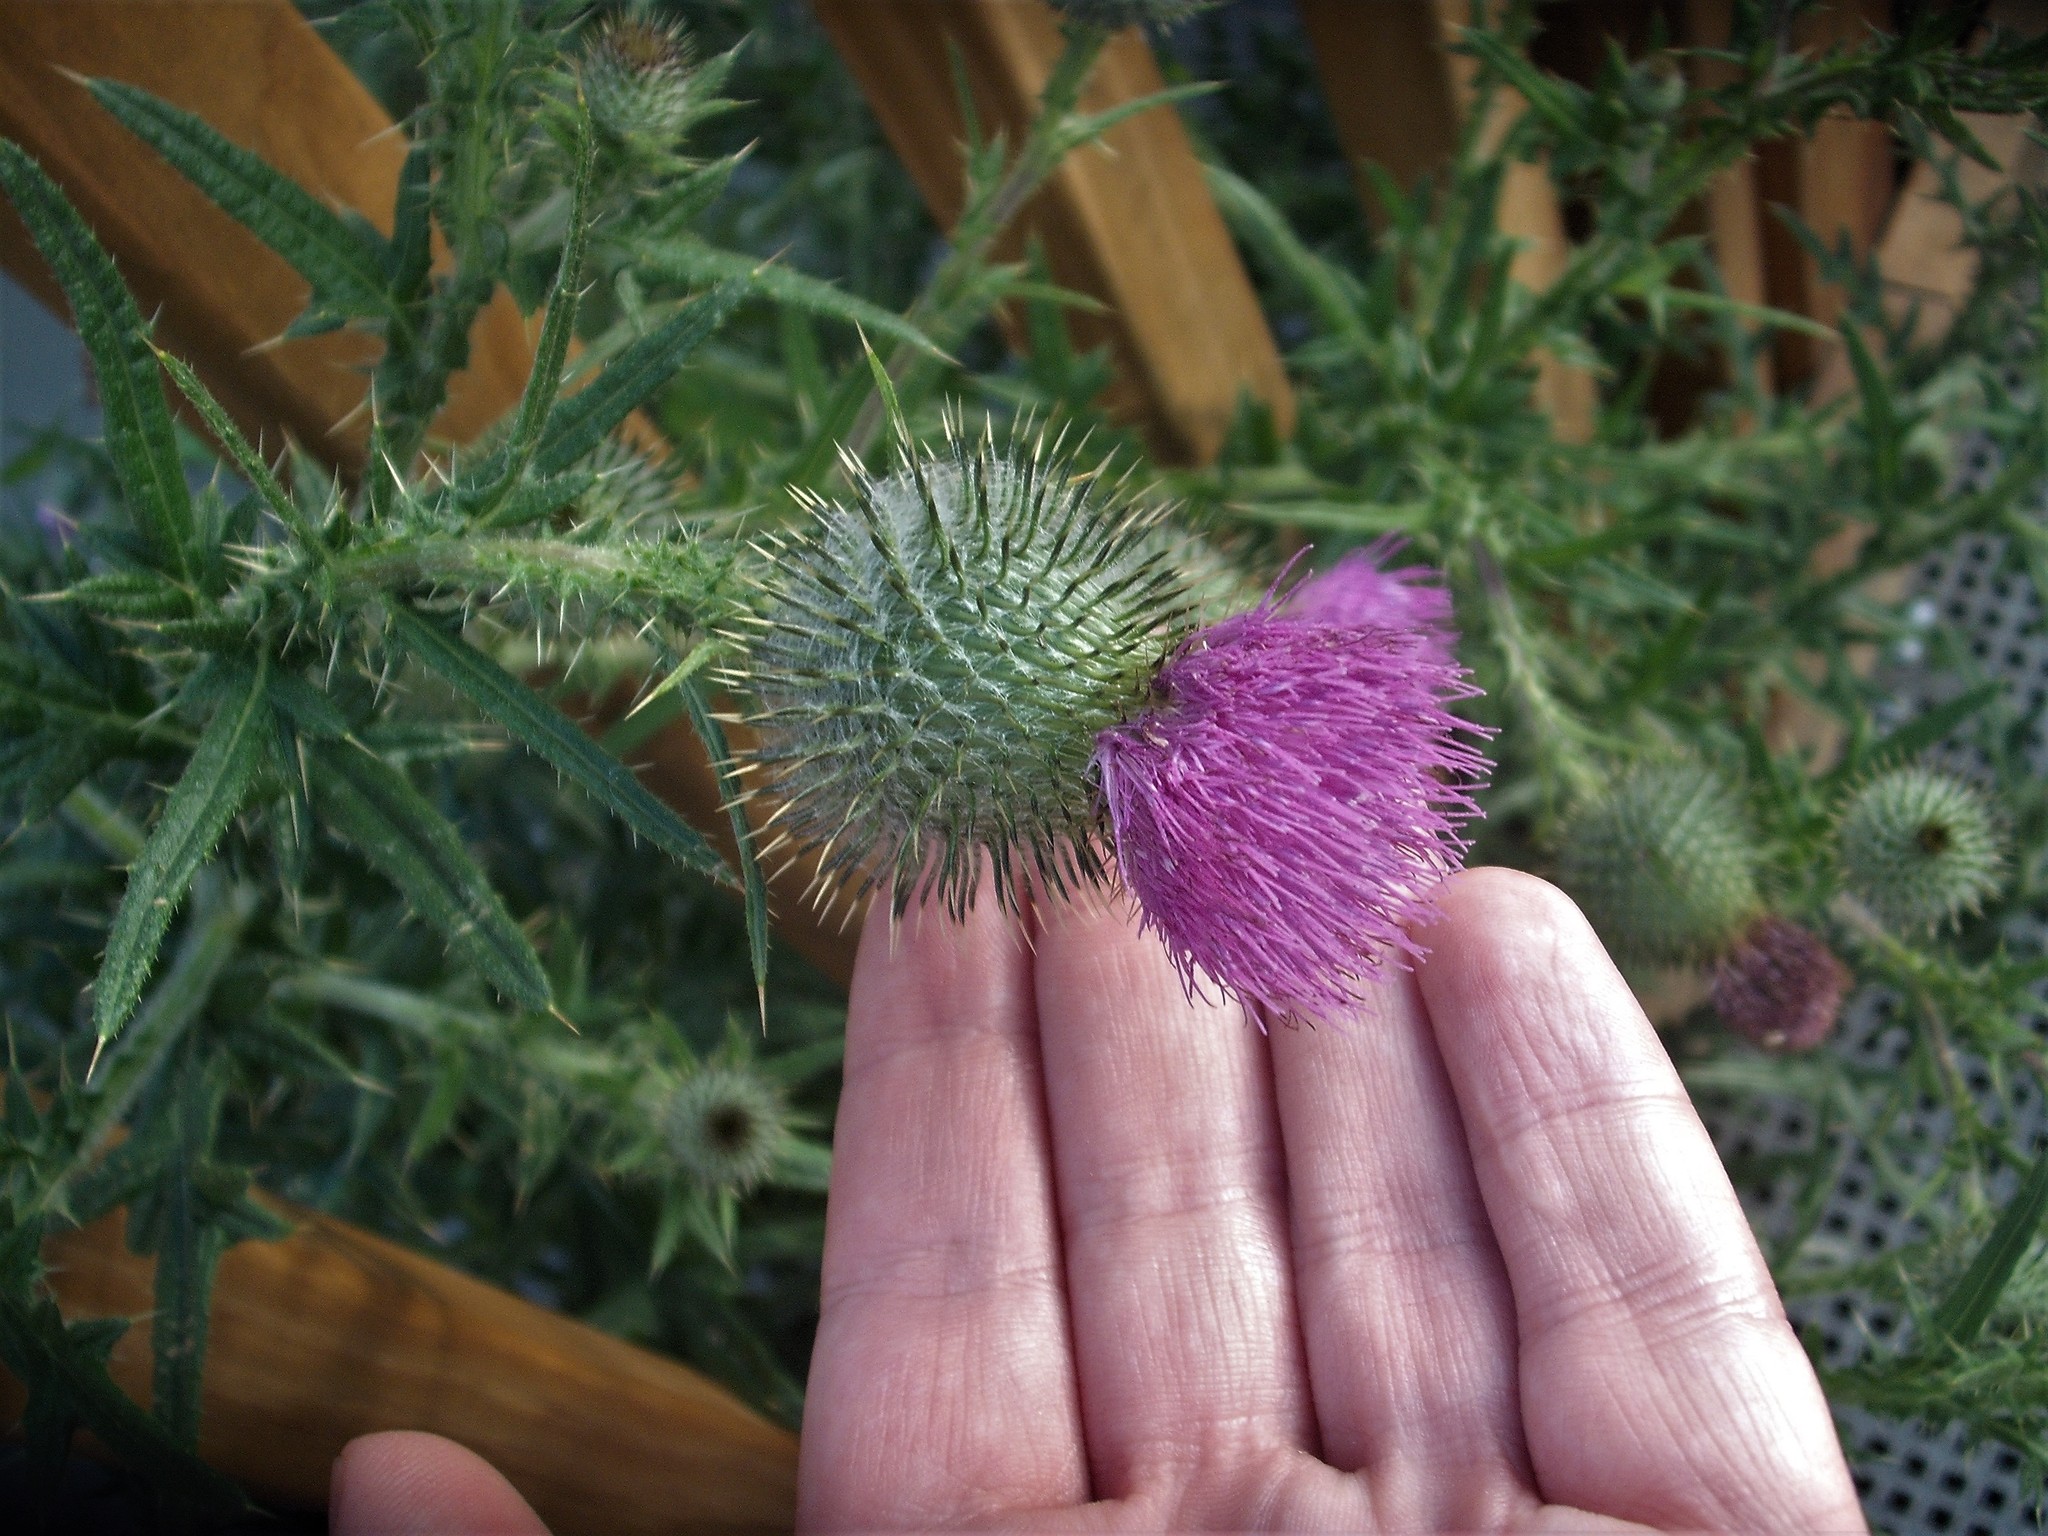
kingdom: Plantae
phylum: Tracheophyta
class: Magnoliopsida
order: Asterales
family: Asteraceae
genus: Cirsium
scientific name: Cirsium vulgare
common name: Bull thistle
